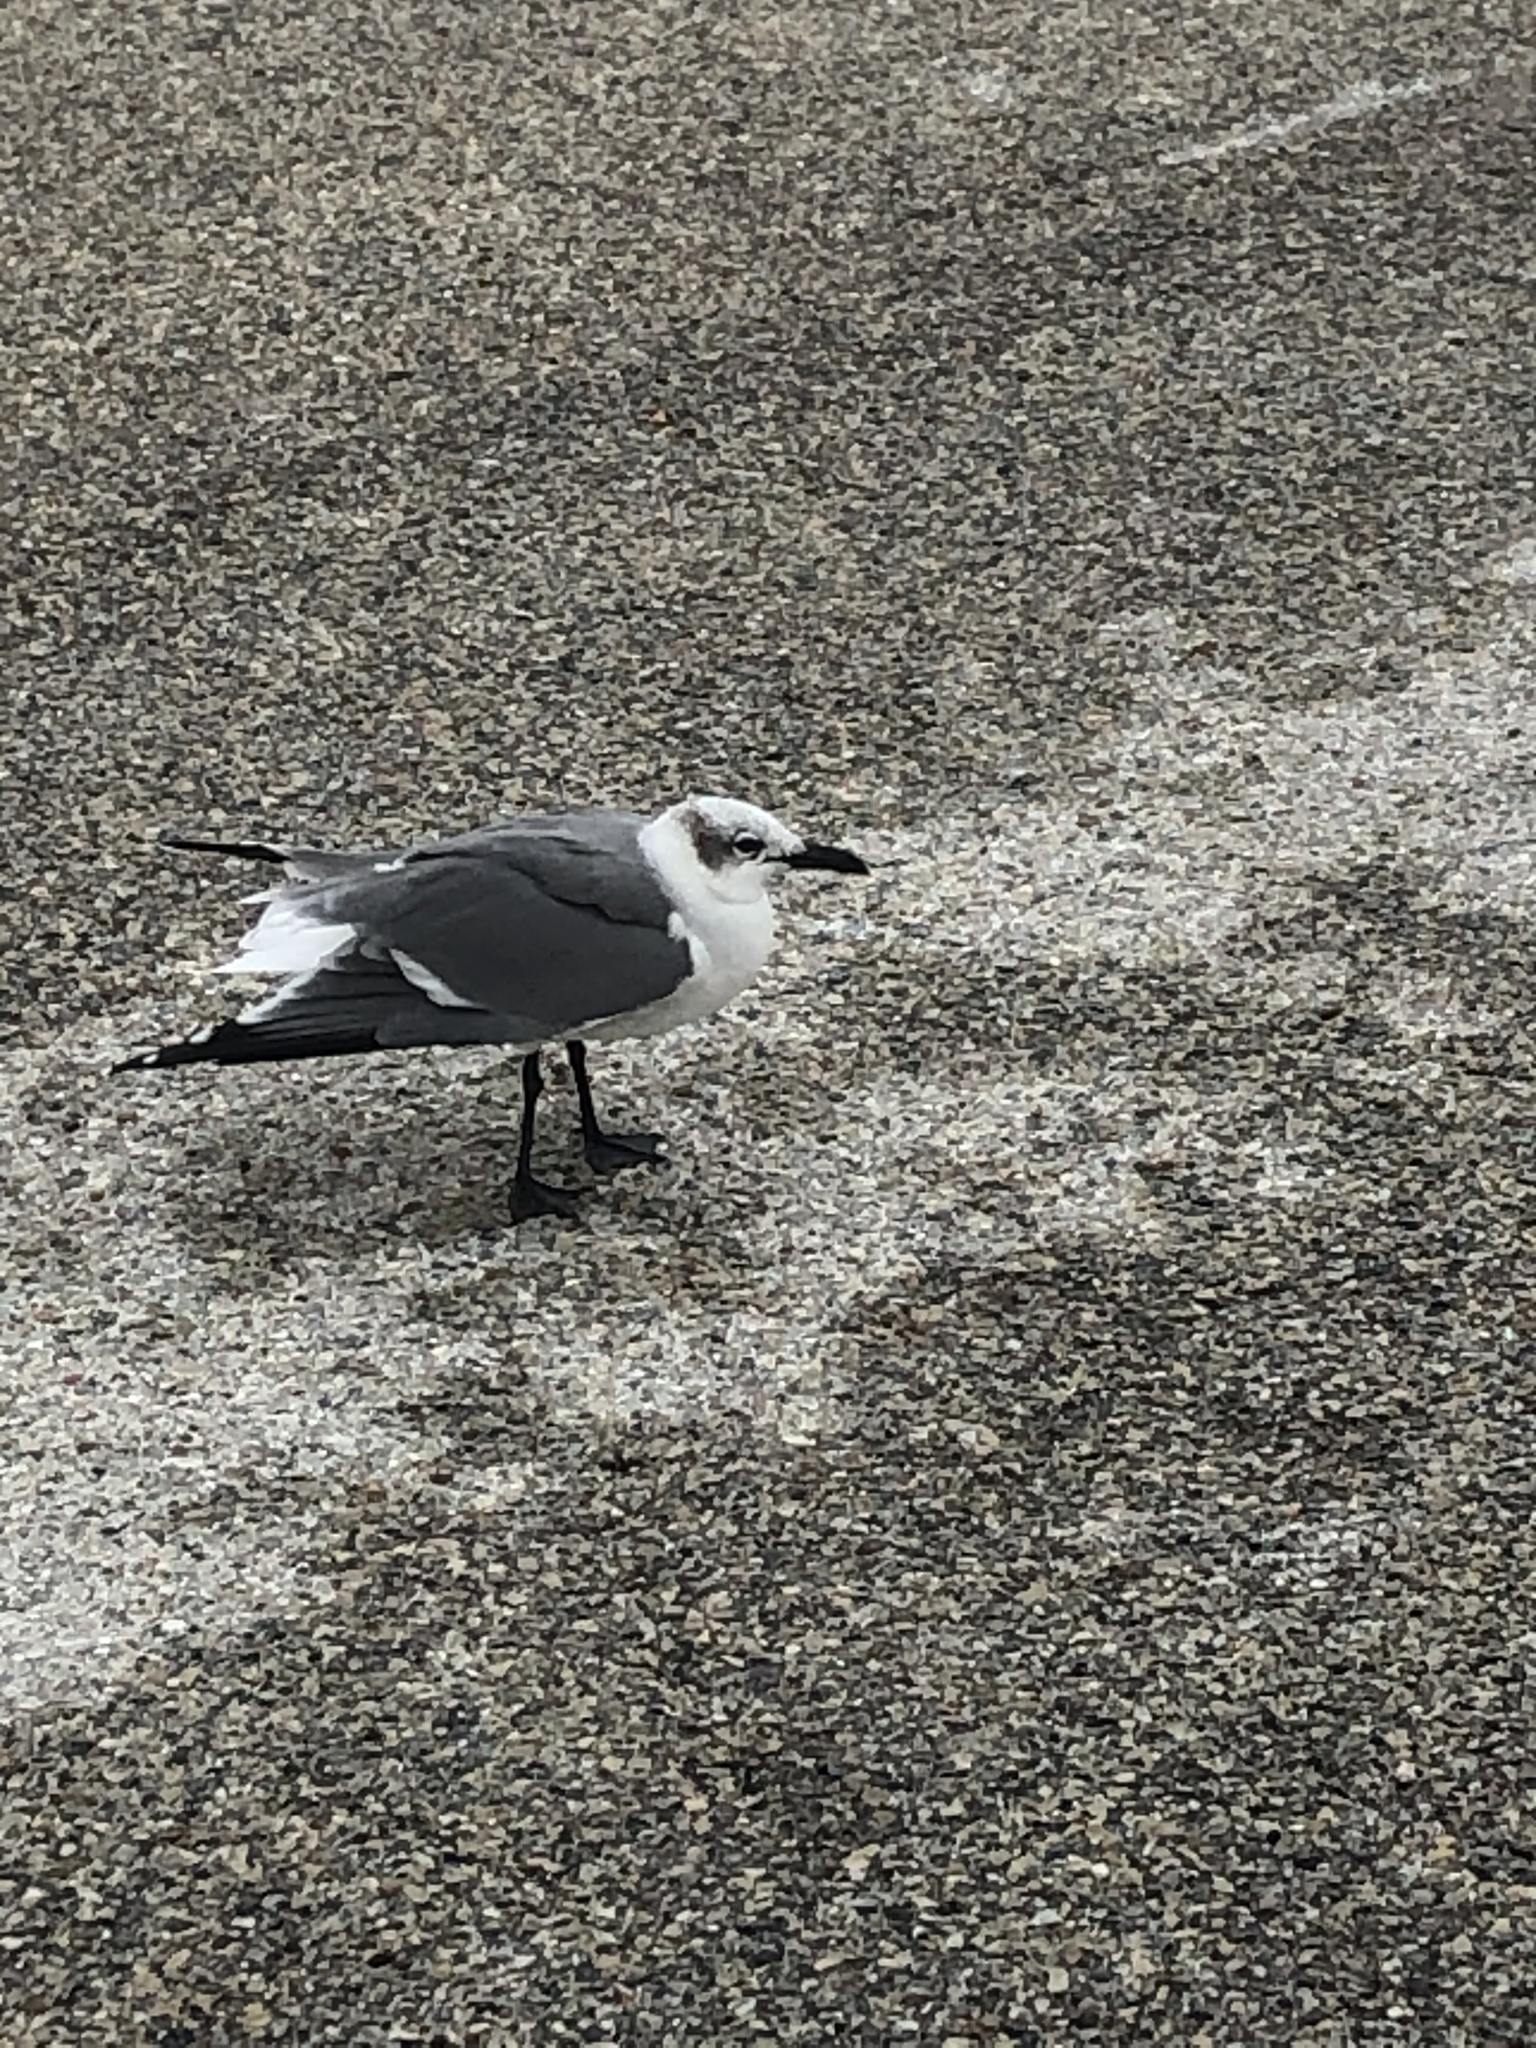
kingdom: Animalia
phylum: Chordata
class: Aves
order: Charadriiformes
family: Laridae
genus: Leucophaeus
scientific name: Leucophaeus atricilla
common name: Laughing gull
